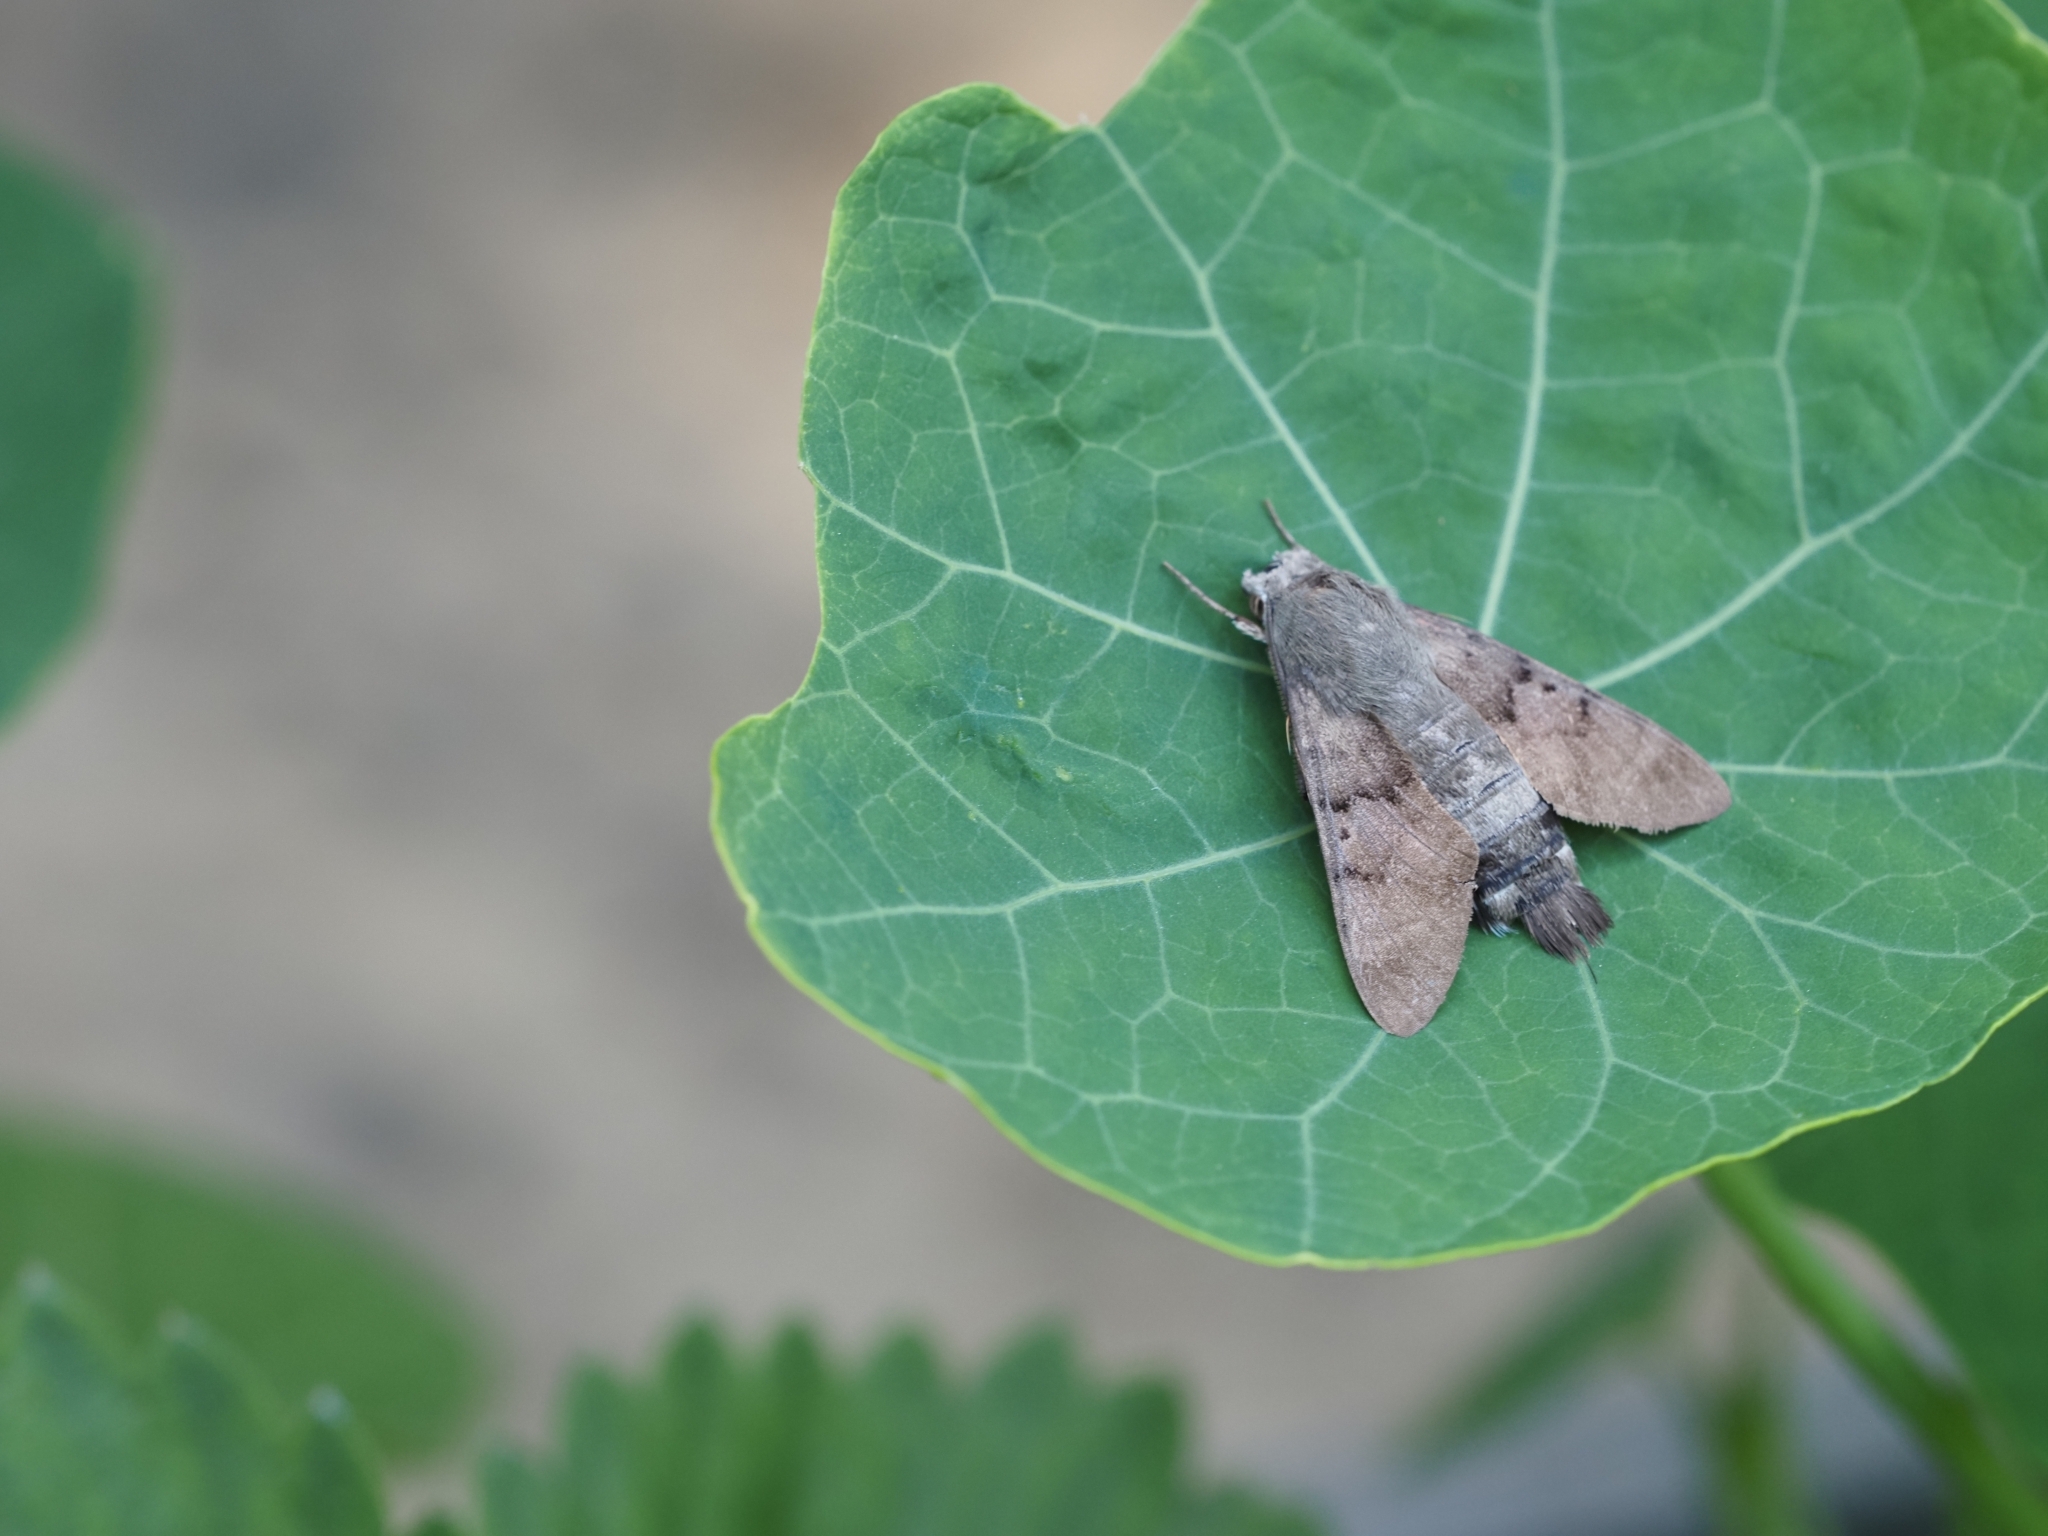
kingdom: Animalia
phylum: Arthropoda
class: Insecta
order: Lepidoptera
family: Sphingidae
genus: Macroglossum
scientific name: Macroglossum stellatarum
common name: Humming-bird hawk-moth
